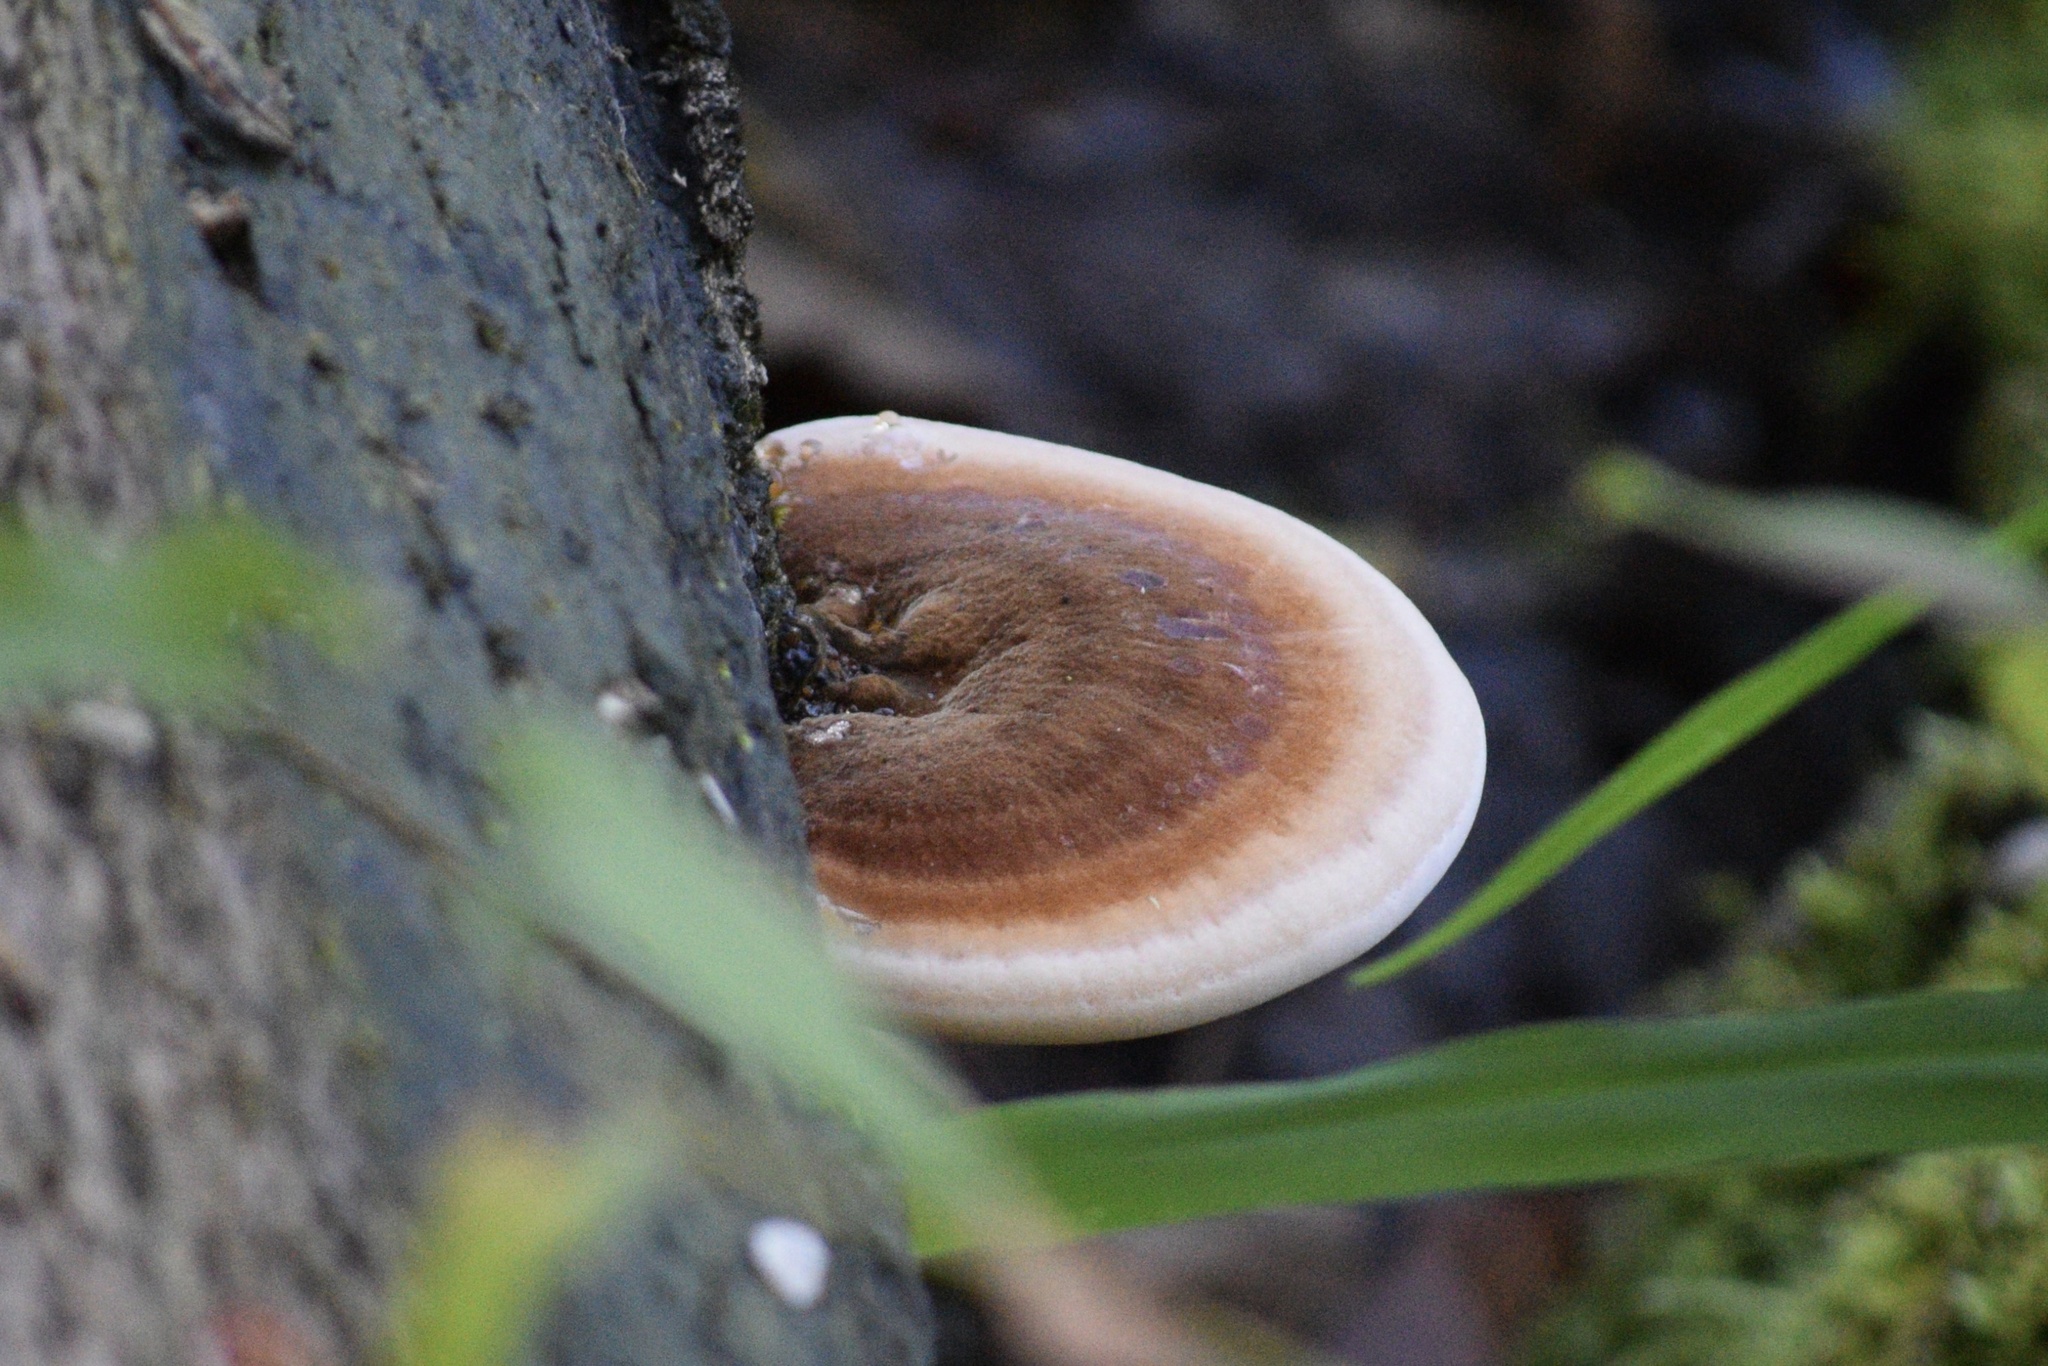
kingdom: Fungi
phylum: Basidiomycota
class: Agaricomycetes
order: Polyporales
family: Ischnodermataceae
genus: Ischnoderma
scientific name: Ischnoderma resinosum
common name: Resinous polypore
